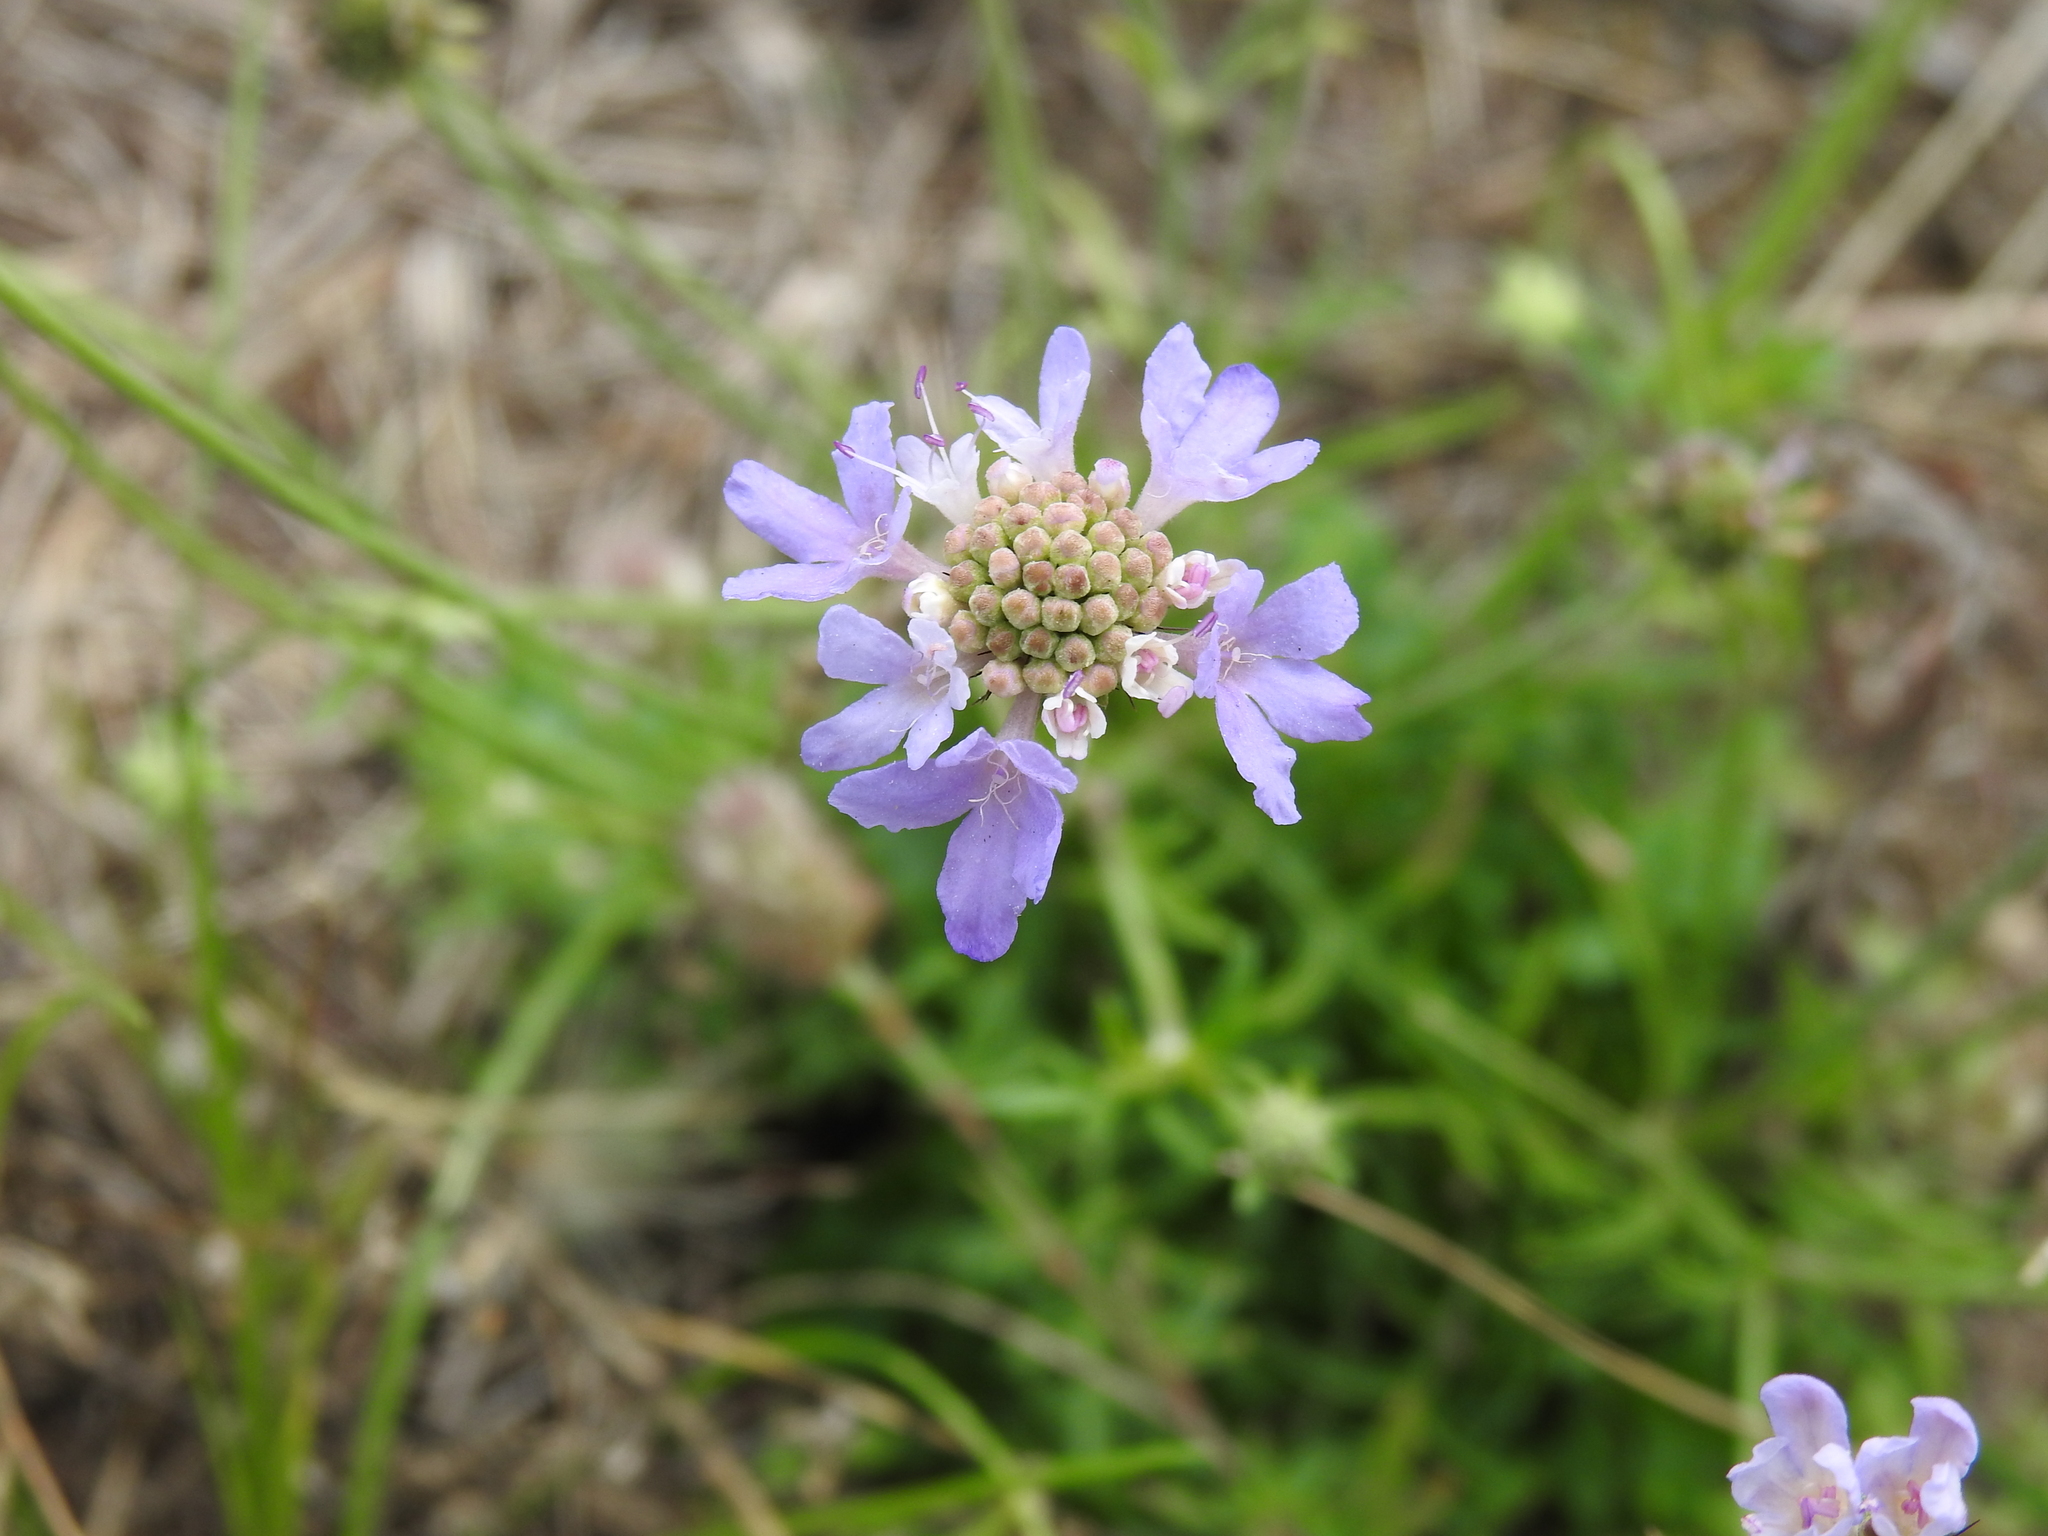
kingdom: Plantae
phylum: Tracheophyta
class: Magnoliopsida
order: Dipsacales
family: Caprifoliaceae
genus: Scabiosa
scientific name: Scabiosa columbaria
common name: Small scabious
